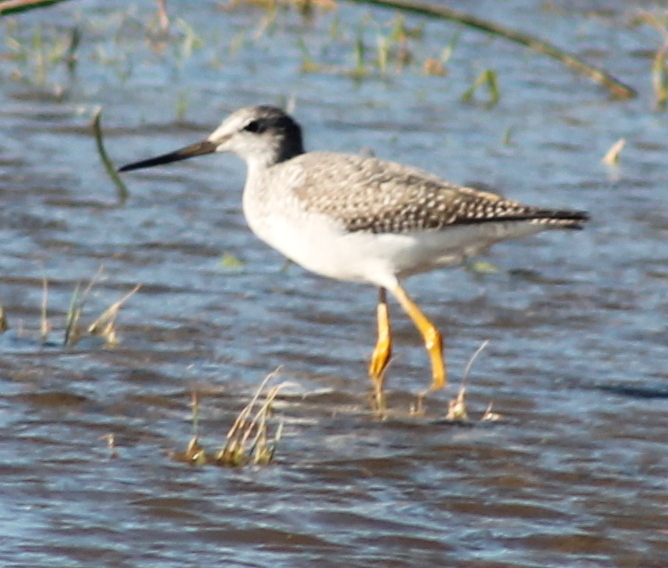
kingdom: Animalia
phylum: Chordata
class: Aves
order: Charadriiformes
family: Scolopacidae
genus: Tringa
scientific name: Tringa melanoleuca
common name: Greater yellowlegs
